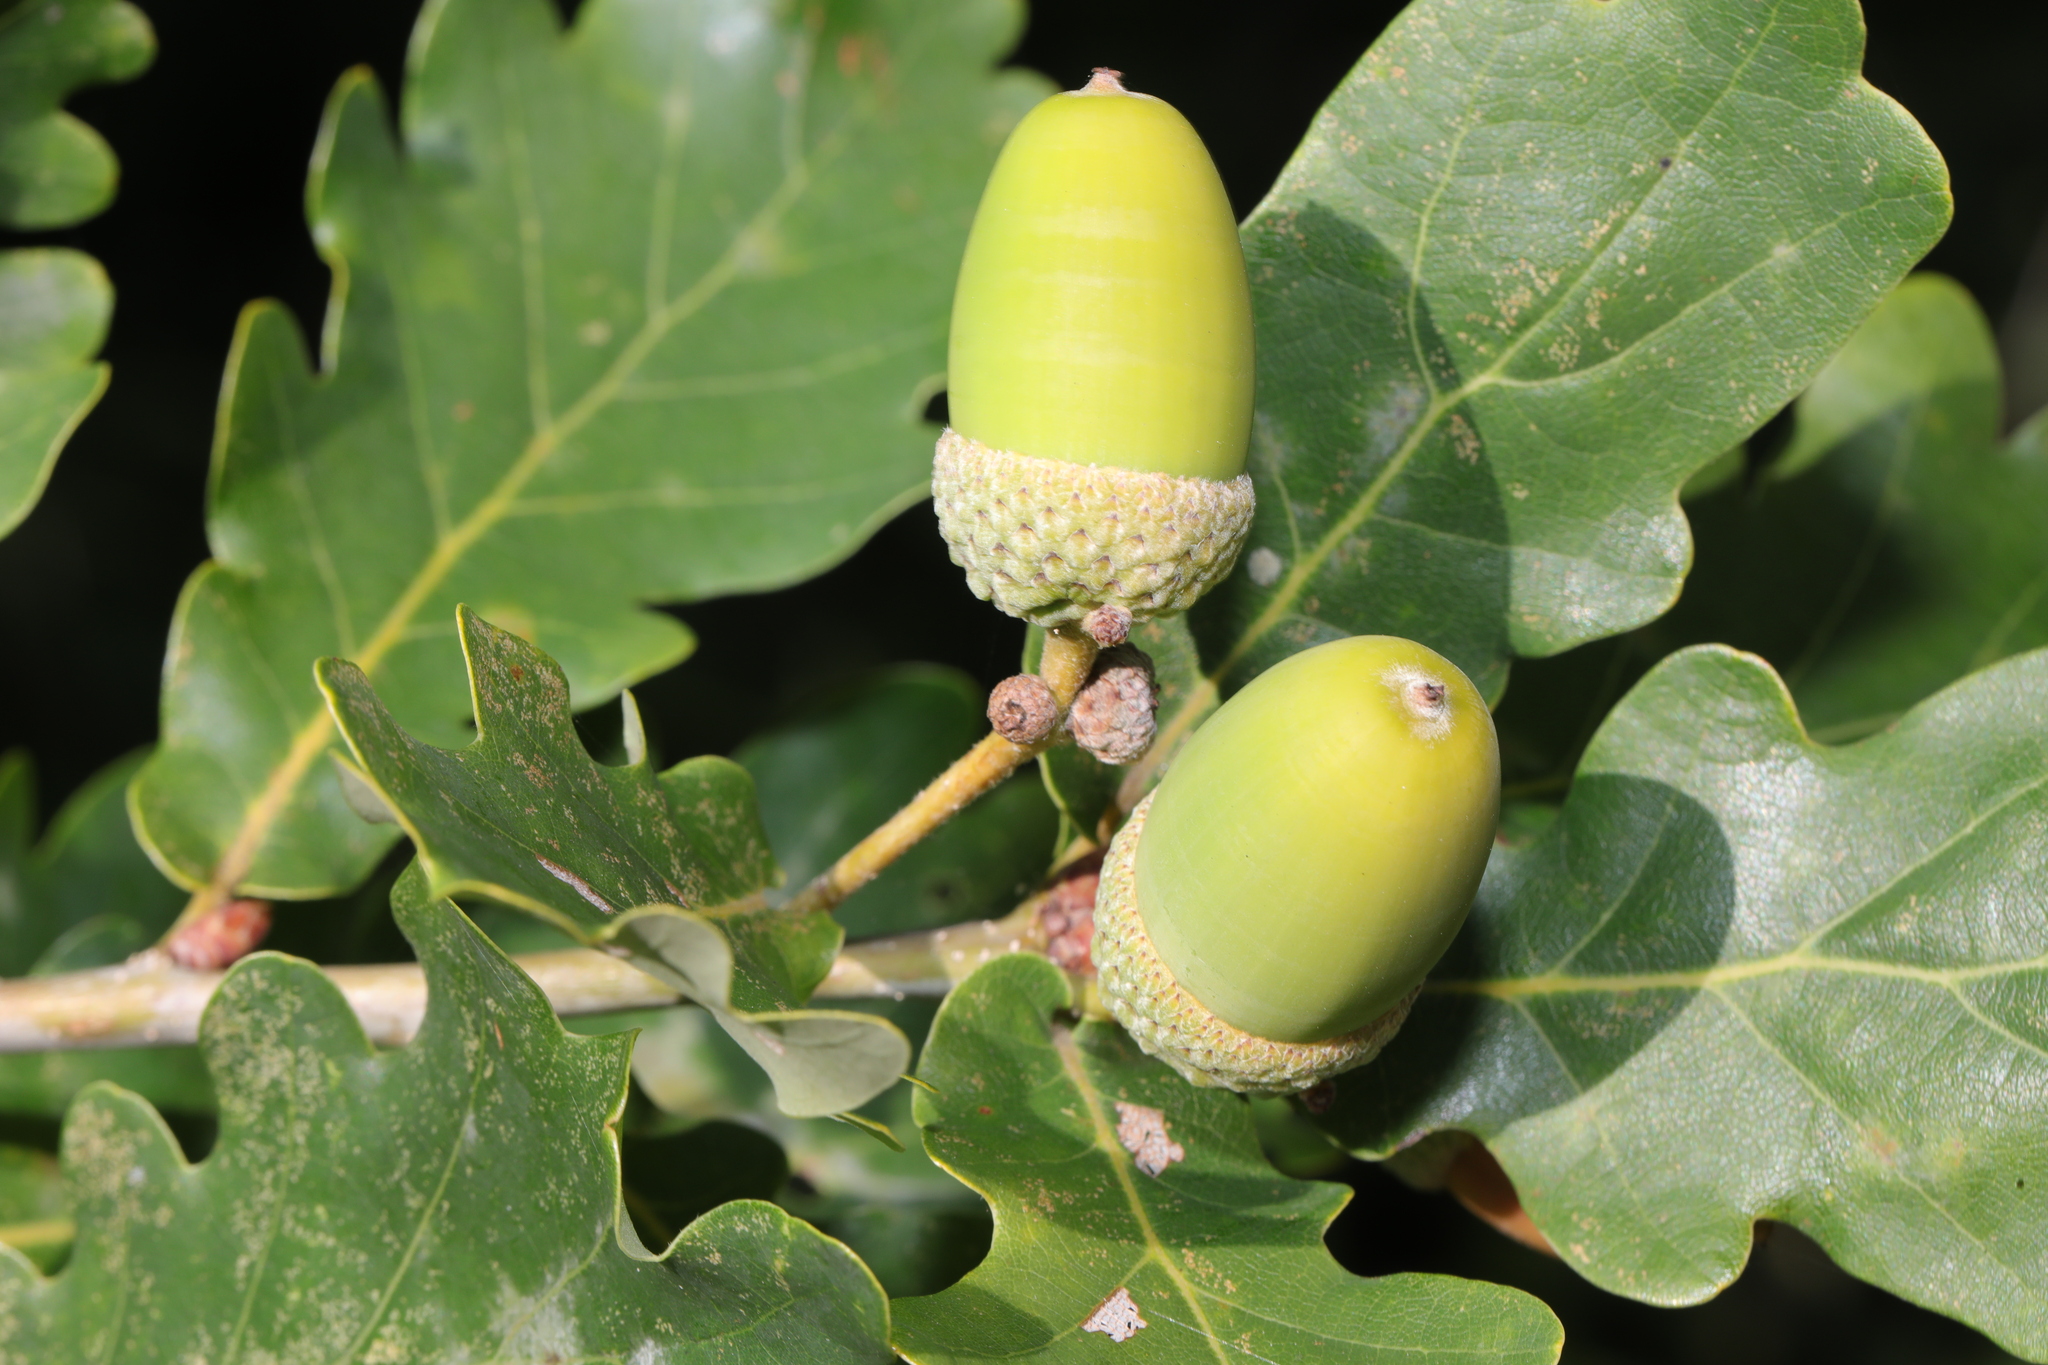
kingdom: Plantae
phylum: Tracheophyta
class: Magnoliopsida
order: Fagales
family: Fagaceae
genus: Quercus
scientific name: Quercus robur
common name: Pedunculate oak
